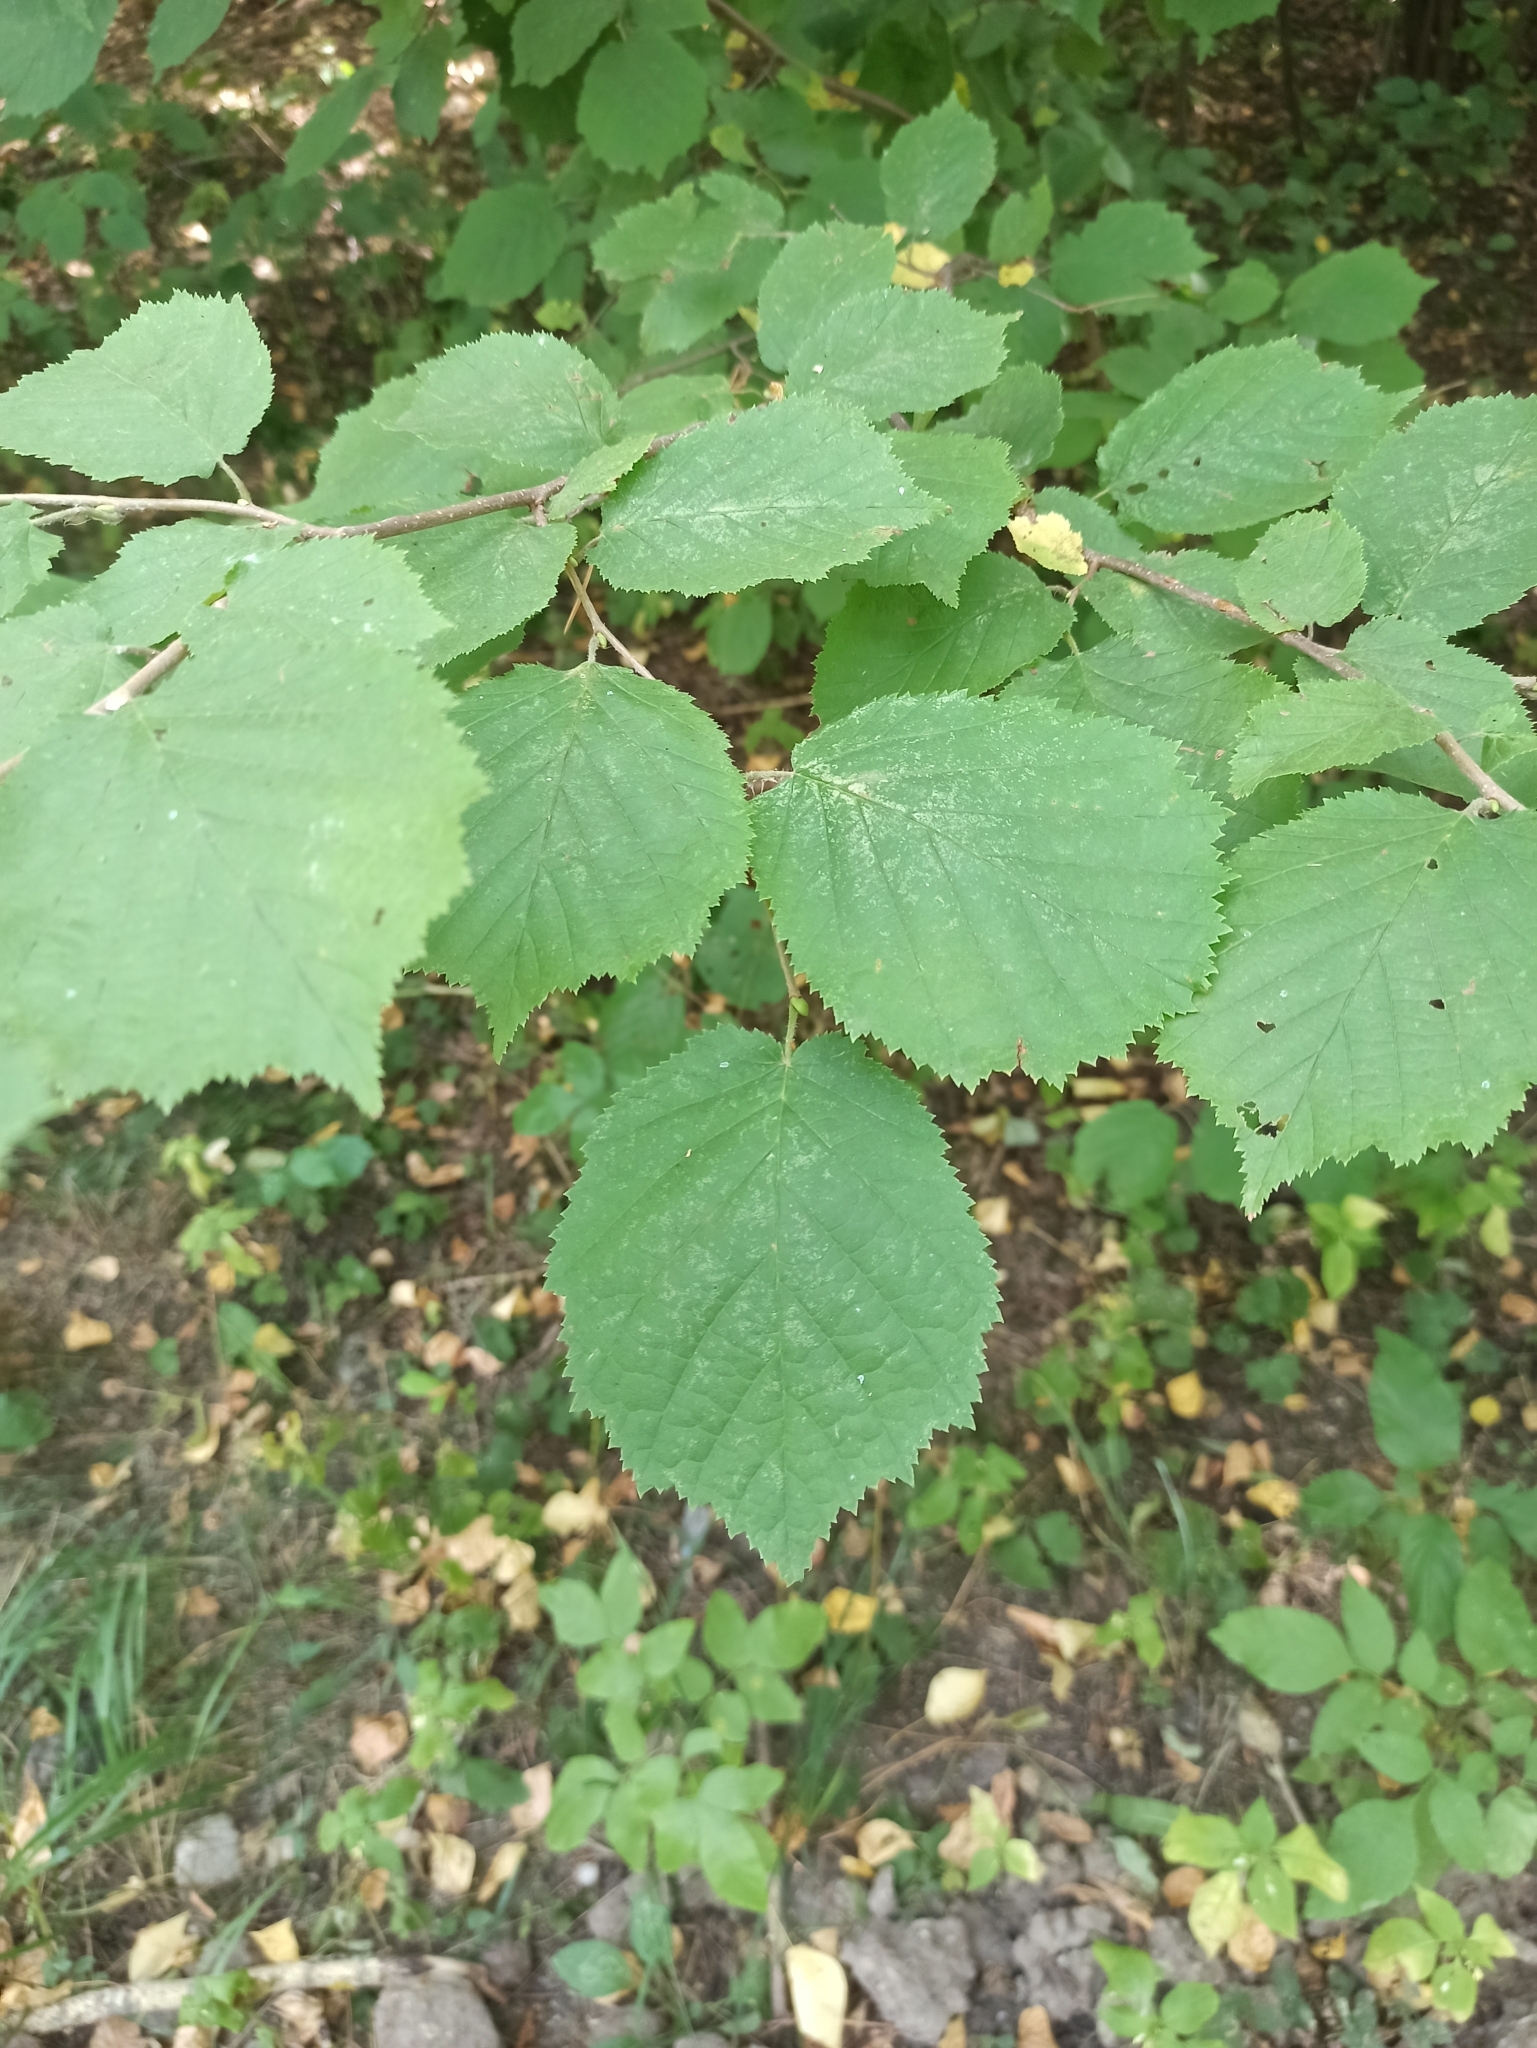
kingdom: Plantae
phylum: Tracheophyta
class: Magnoliopsida
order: Fagales
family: Betulaceae
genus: Corylus
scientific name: Corylus avellana
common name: European hazel
